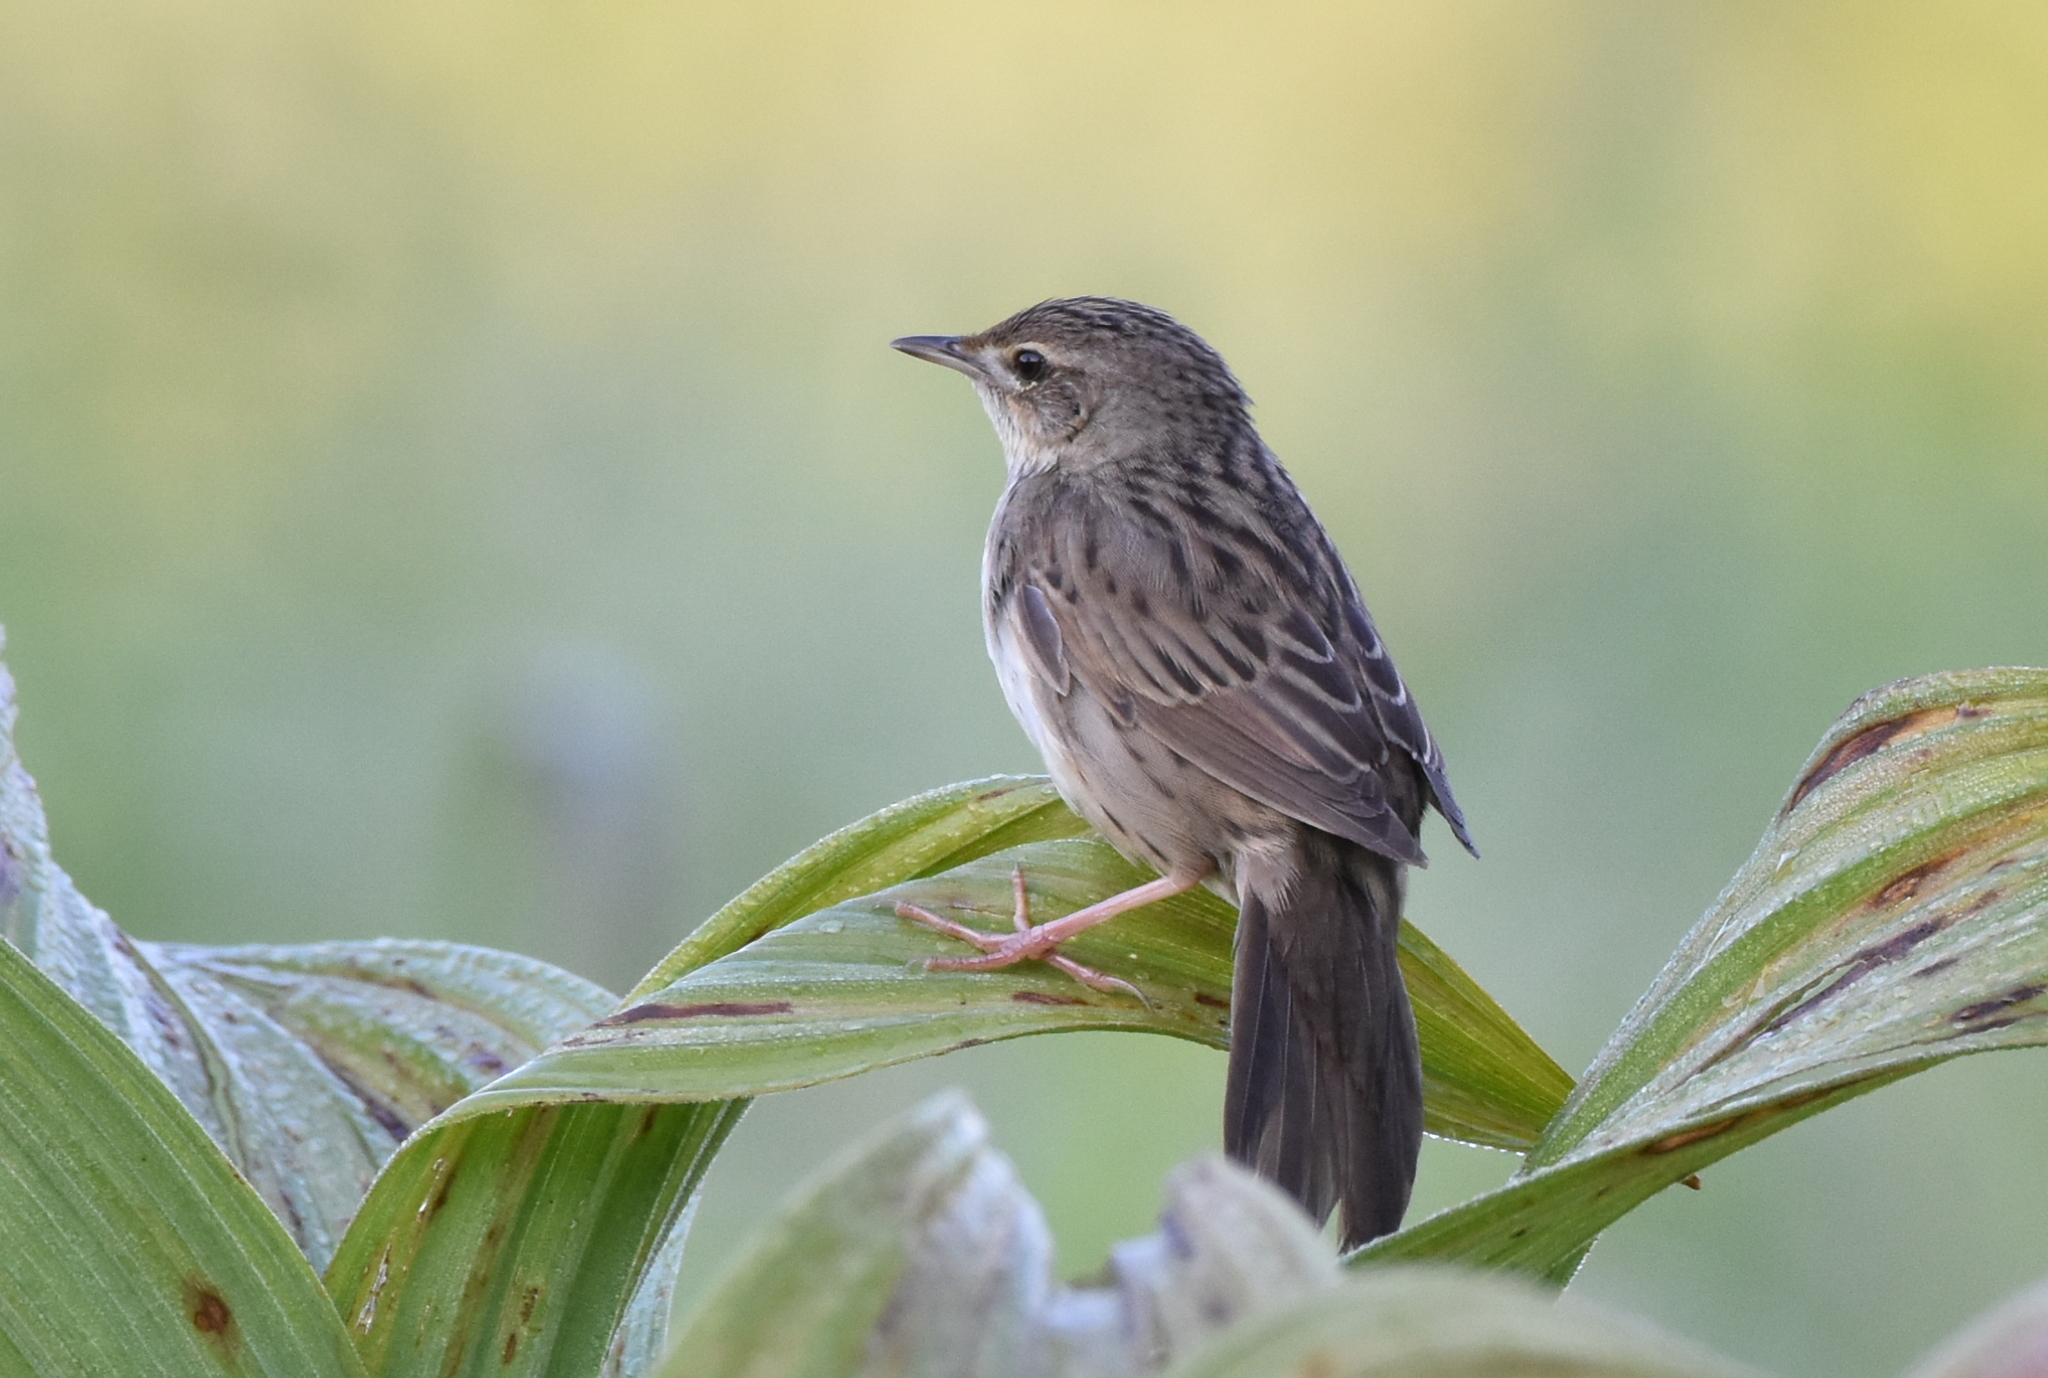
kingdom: Animalia
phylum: Chordata
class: Aves
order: Passeriformes
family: Locustellidae
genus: Locustella
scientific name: Locustella naevia
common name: Common grasshopper warbler
